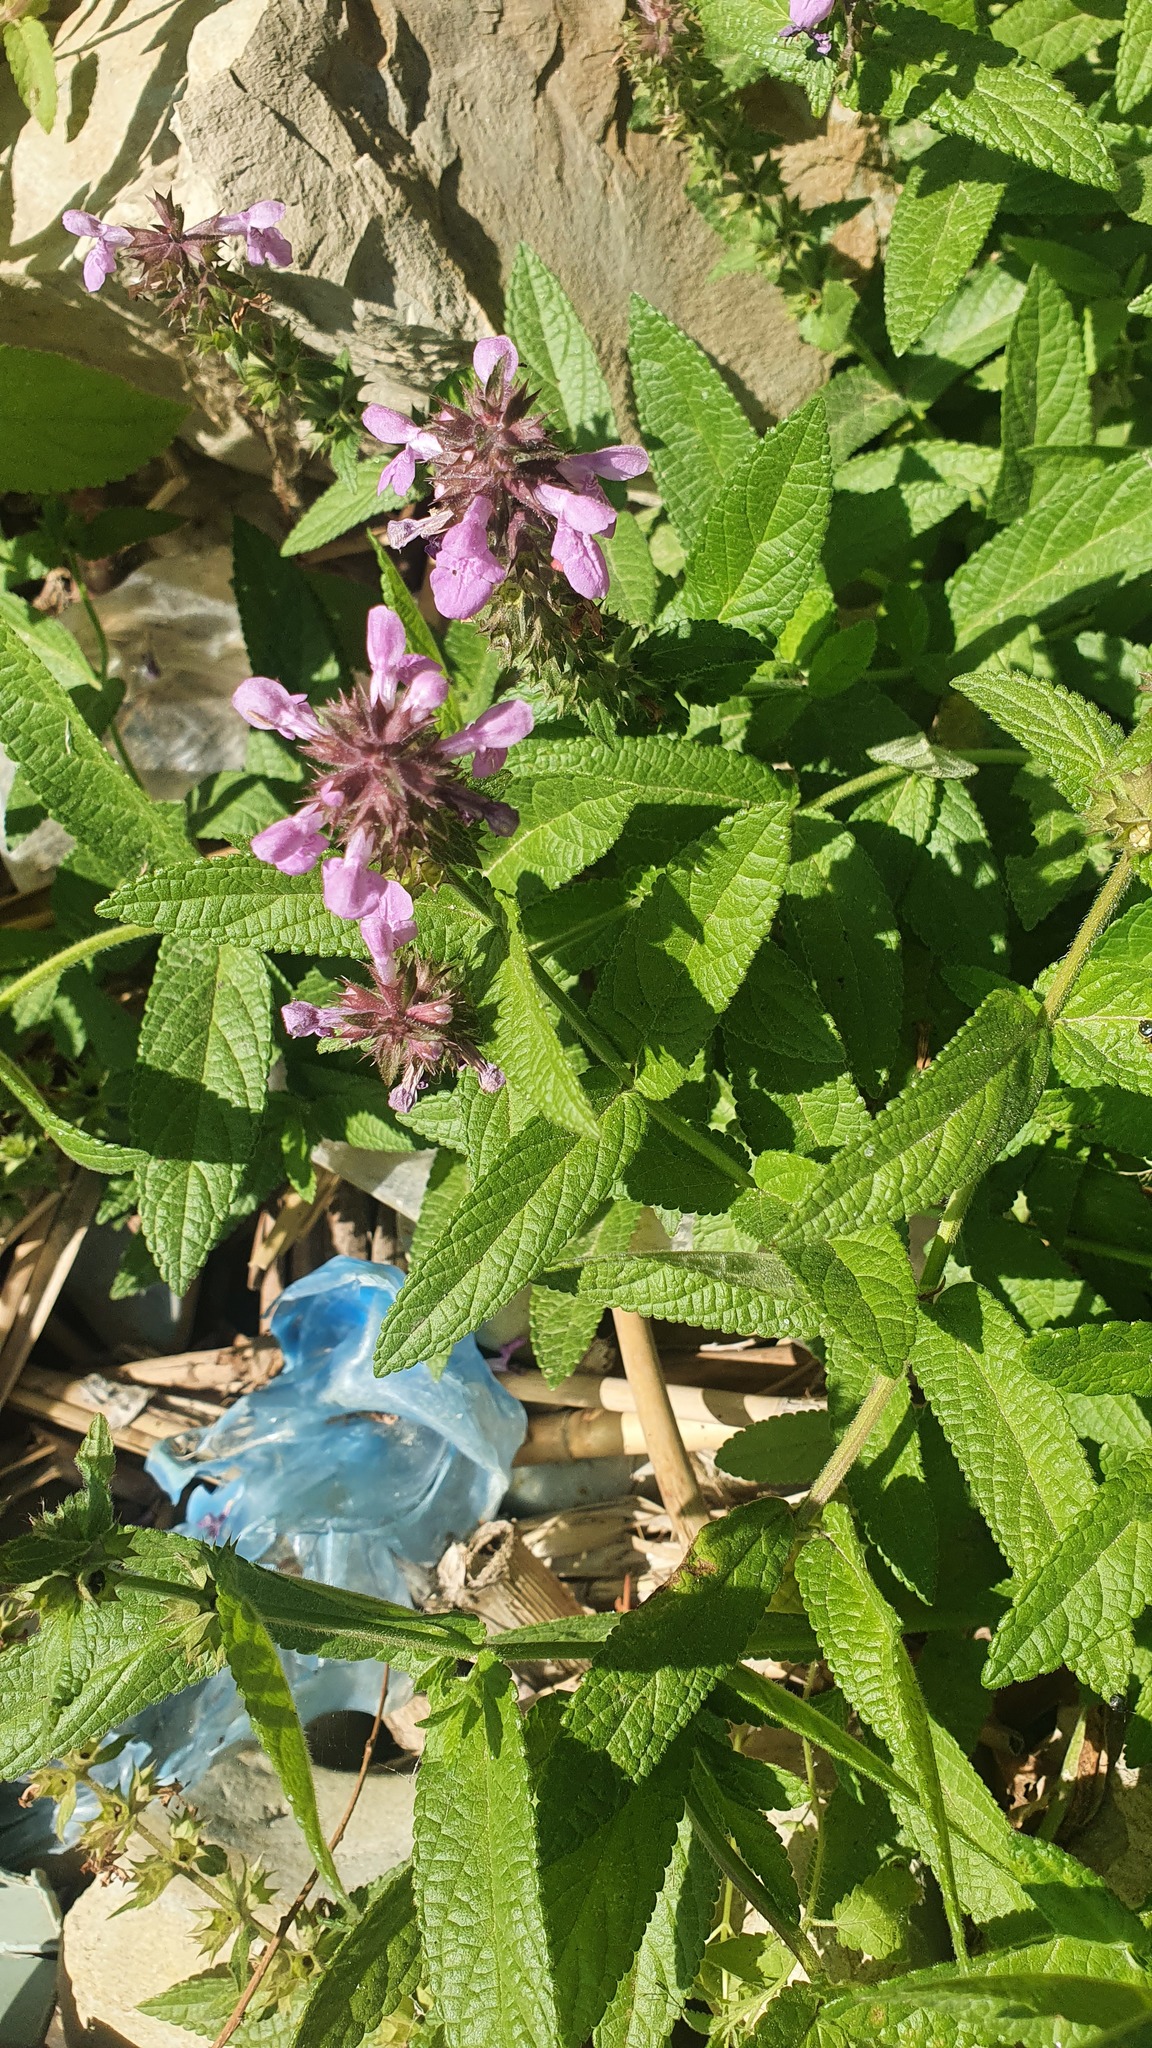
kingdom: Plantae
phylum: Tracheophyta
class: Magnoliopsida
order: Lamiales
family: Lamiaceae
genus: Stachys
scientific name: Stachys palustris
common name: Marsh woundwort
